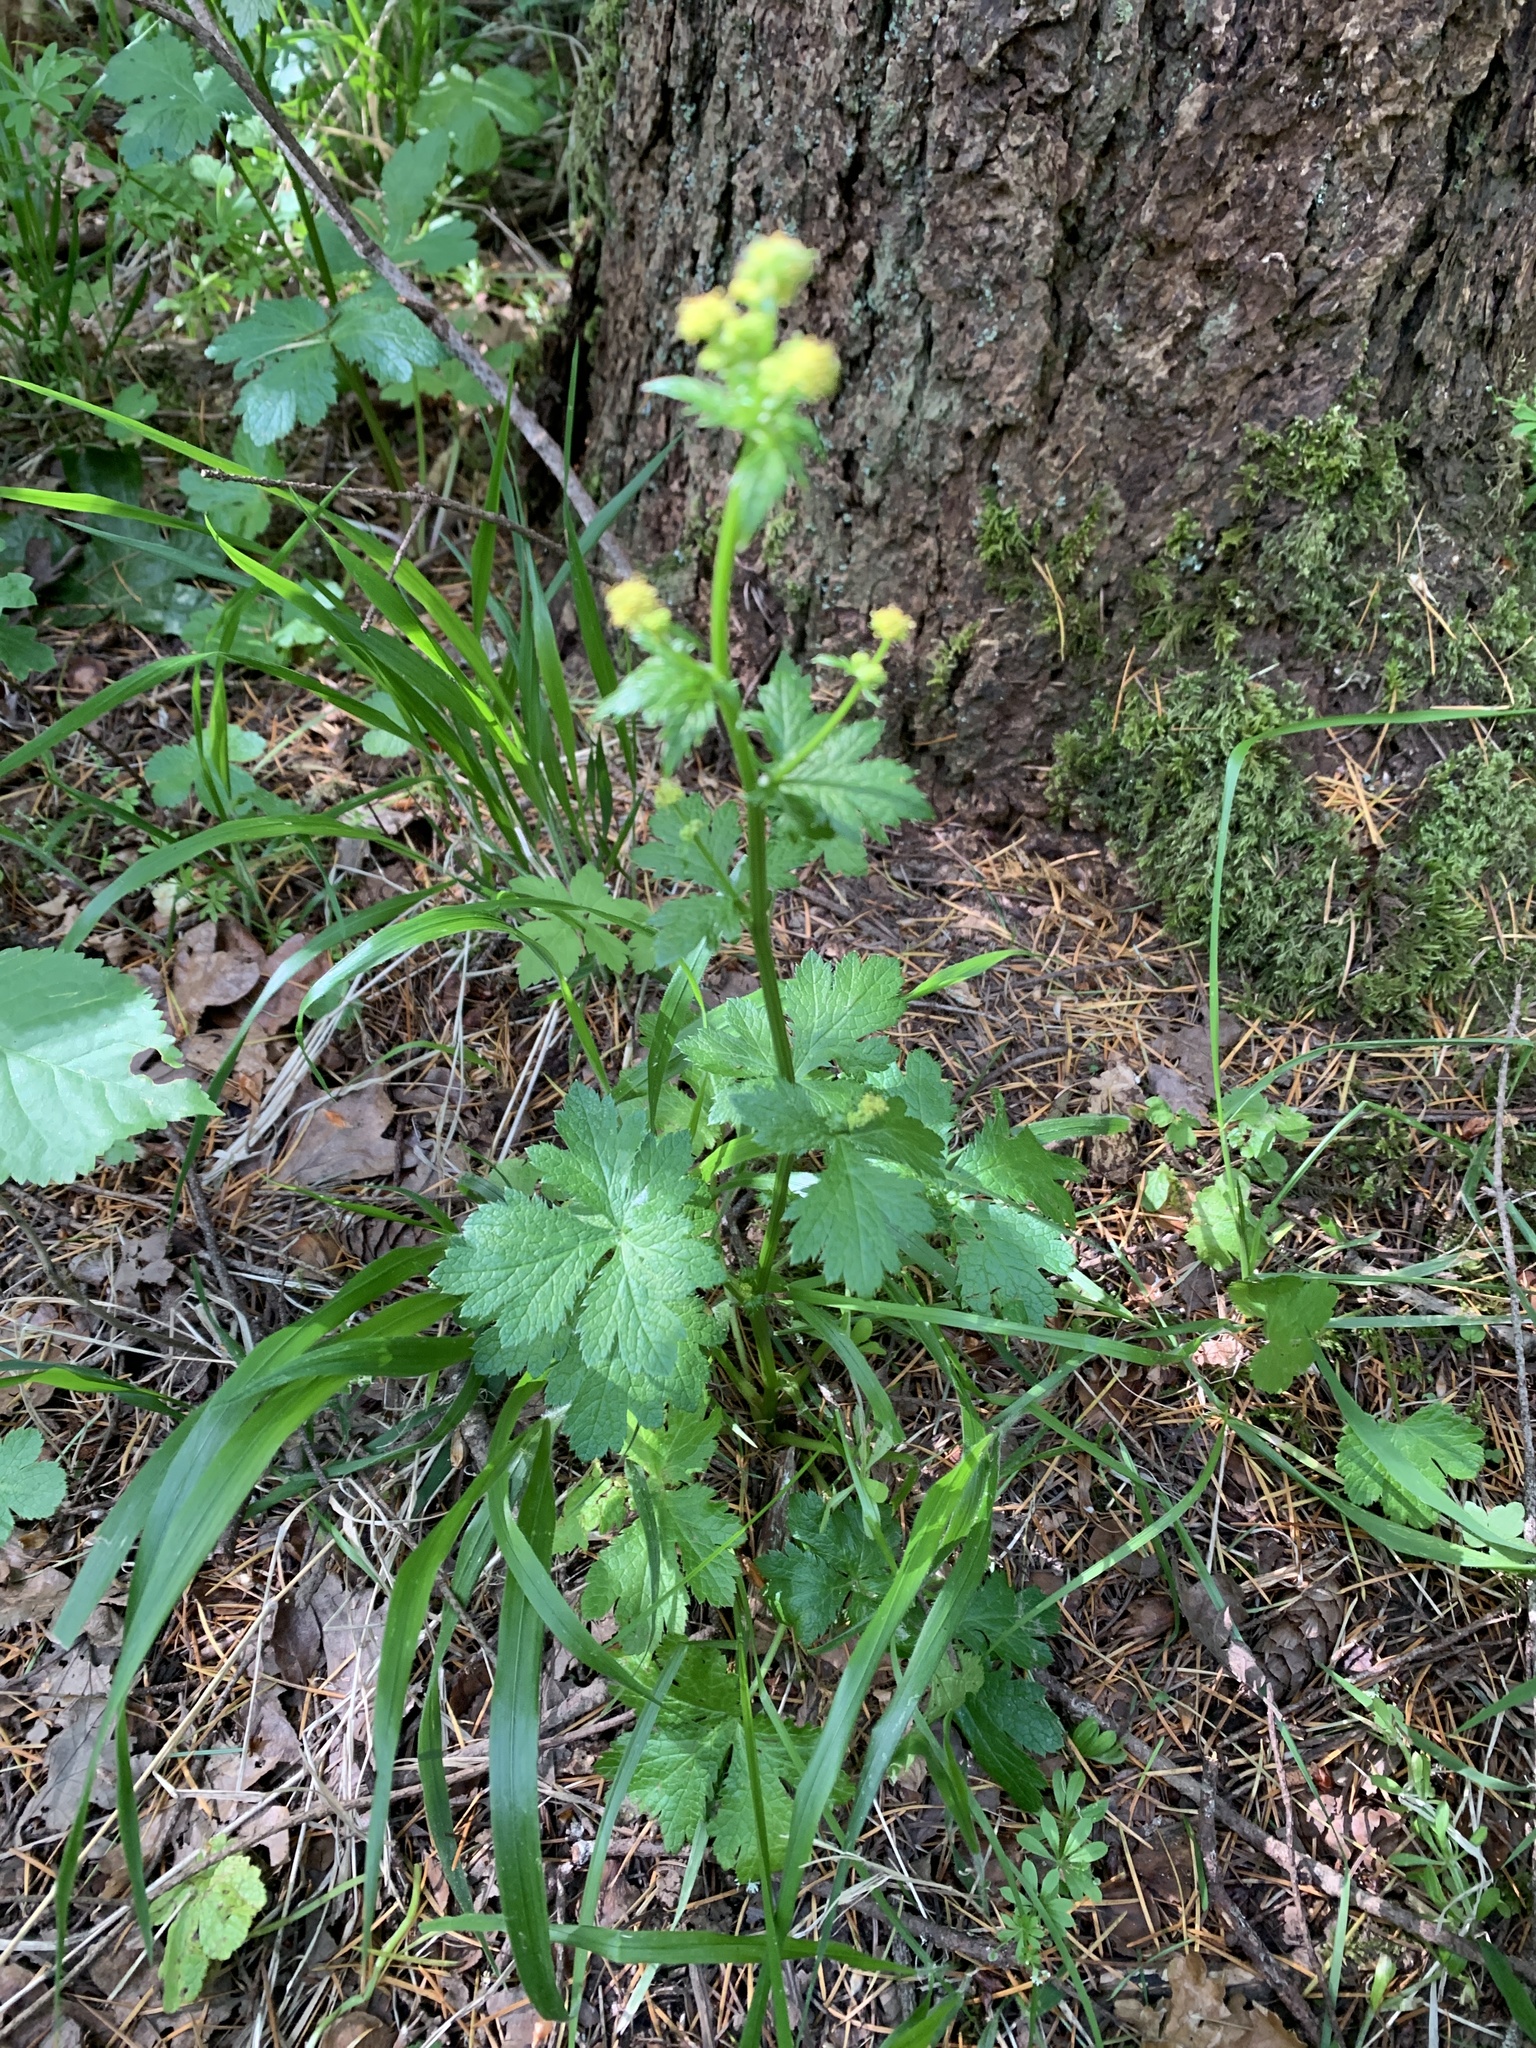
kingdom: Plantae
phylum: Tracheophyta
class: Magnoliopsida
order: Apiales
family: Apiaceae
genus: Sanicula
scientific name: Sanicula crassicaulis
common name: Western snakeroot
